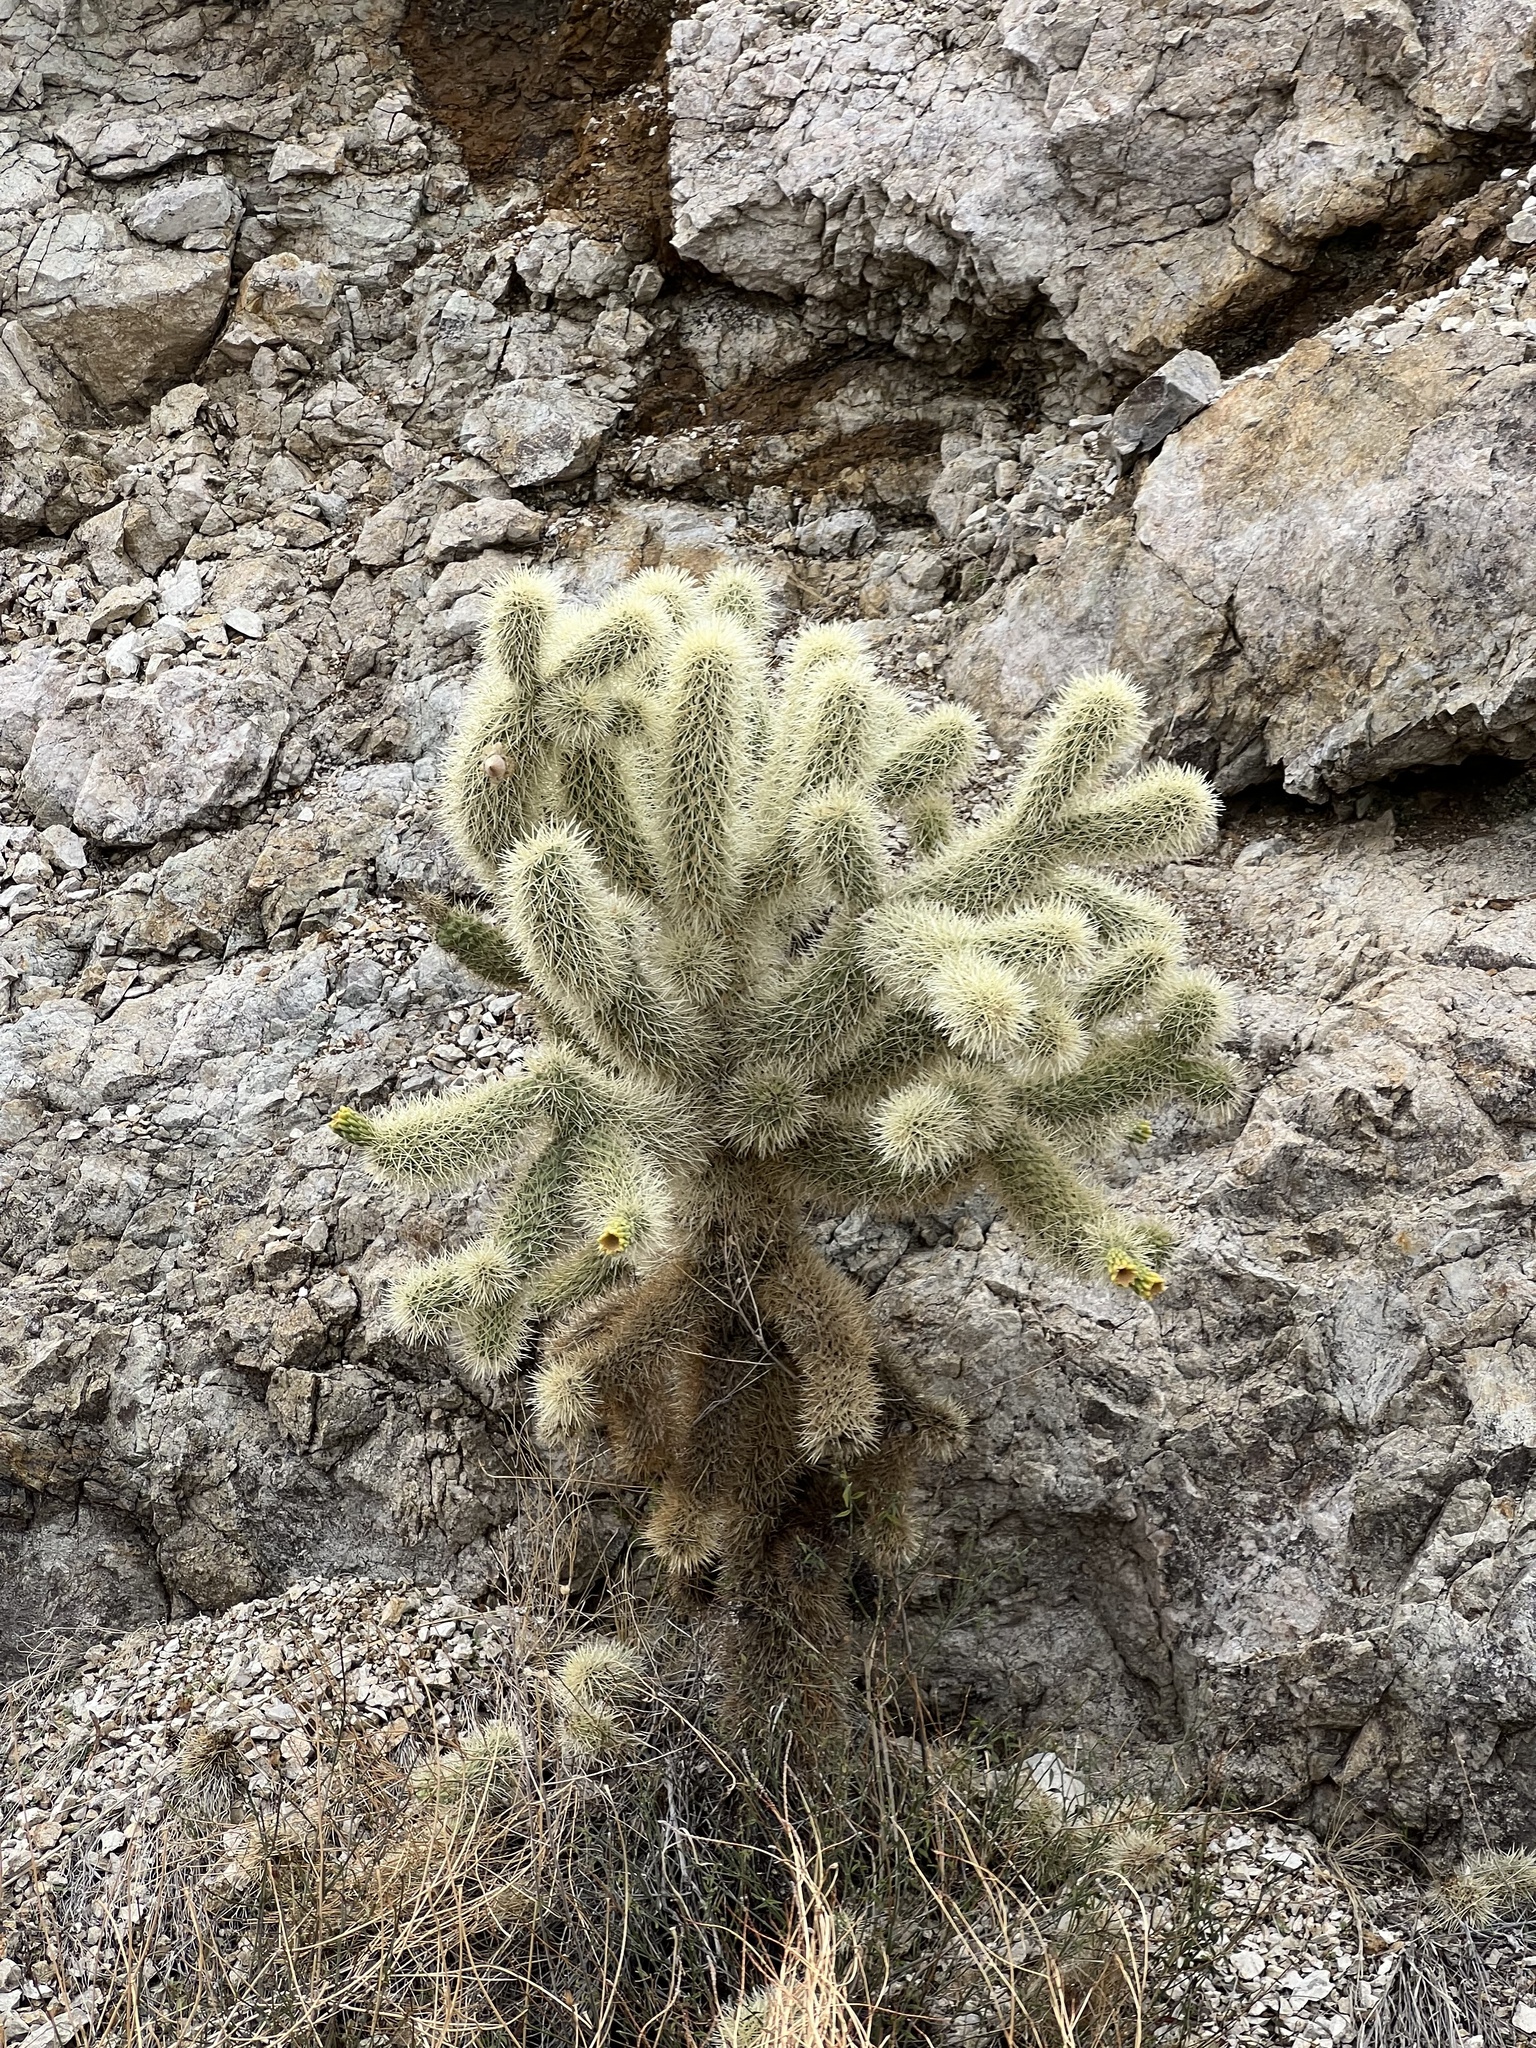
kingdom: Plantae
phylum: Tracheophyta
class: Magnoliopsida
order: Caryophyllales
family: Cactaceae
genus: Cylindropuntia
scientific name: Cylindropuntia fosbergii
